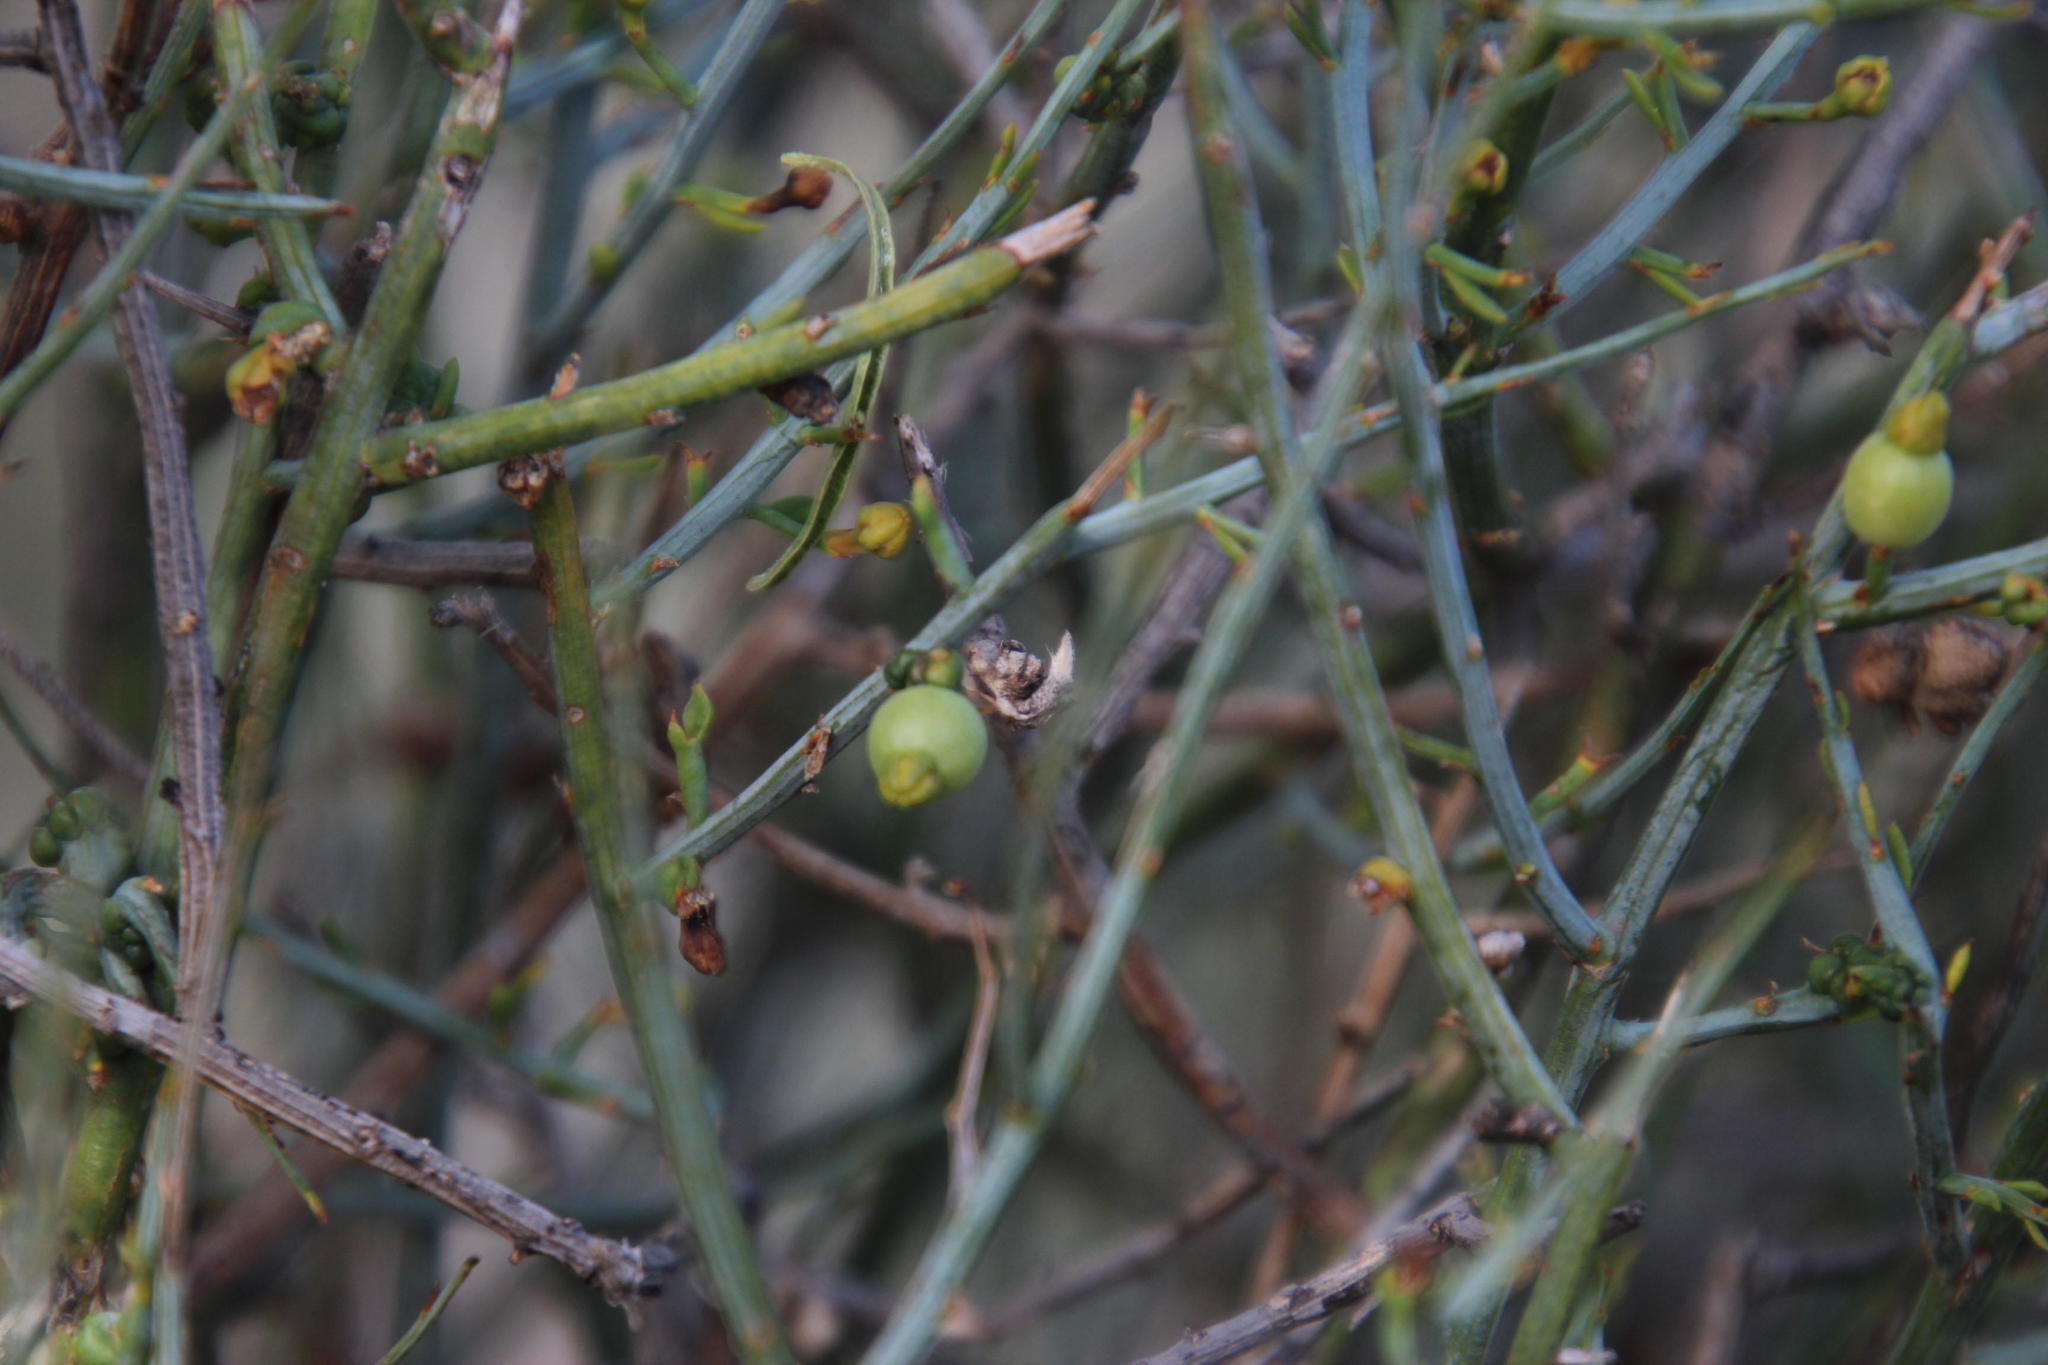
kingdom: Plantae
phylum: Tracheophyta
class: Magnoliopsida
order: Santalales
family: Thesiaceae
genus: Lacomucinaea
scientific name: Lacomucinaea lineata
